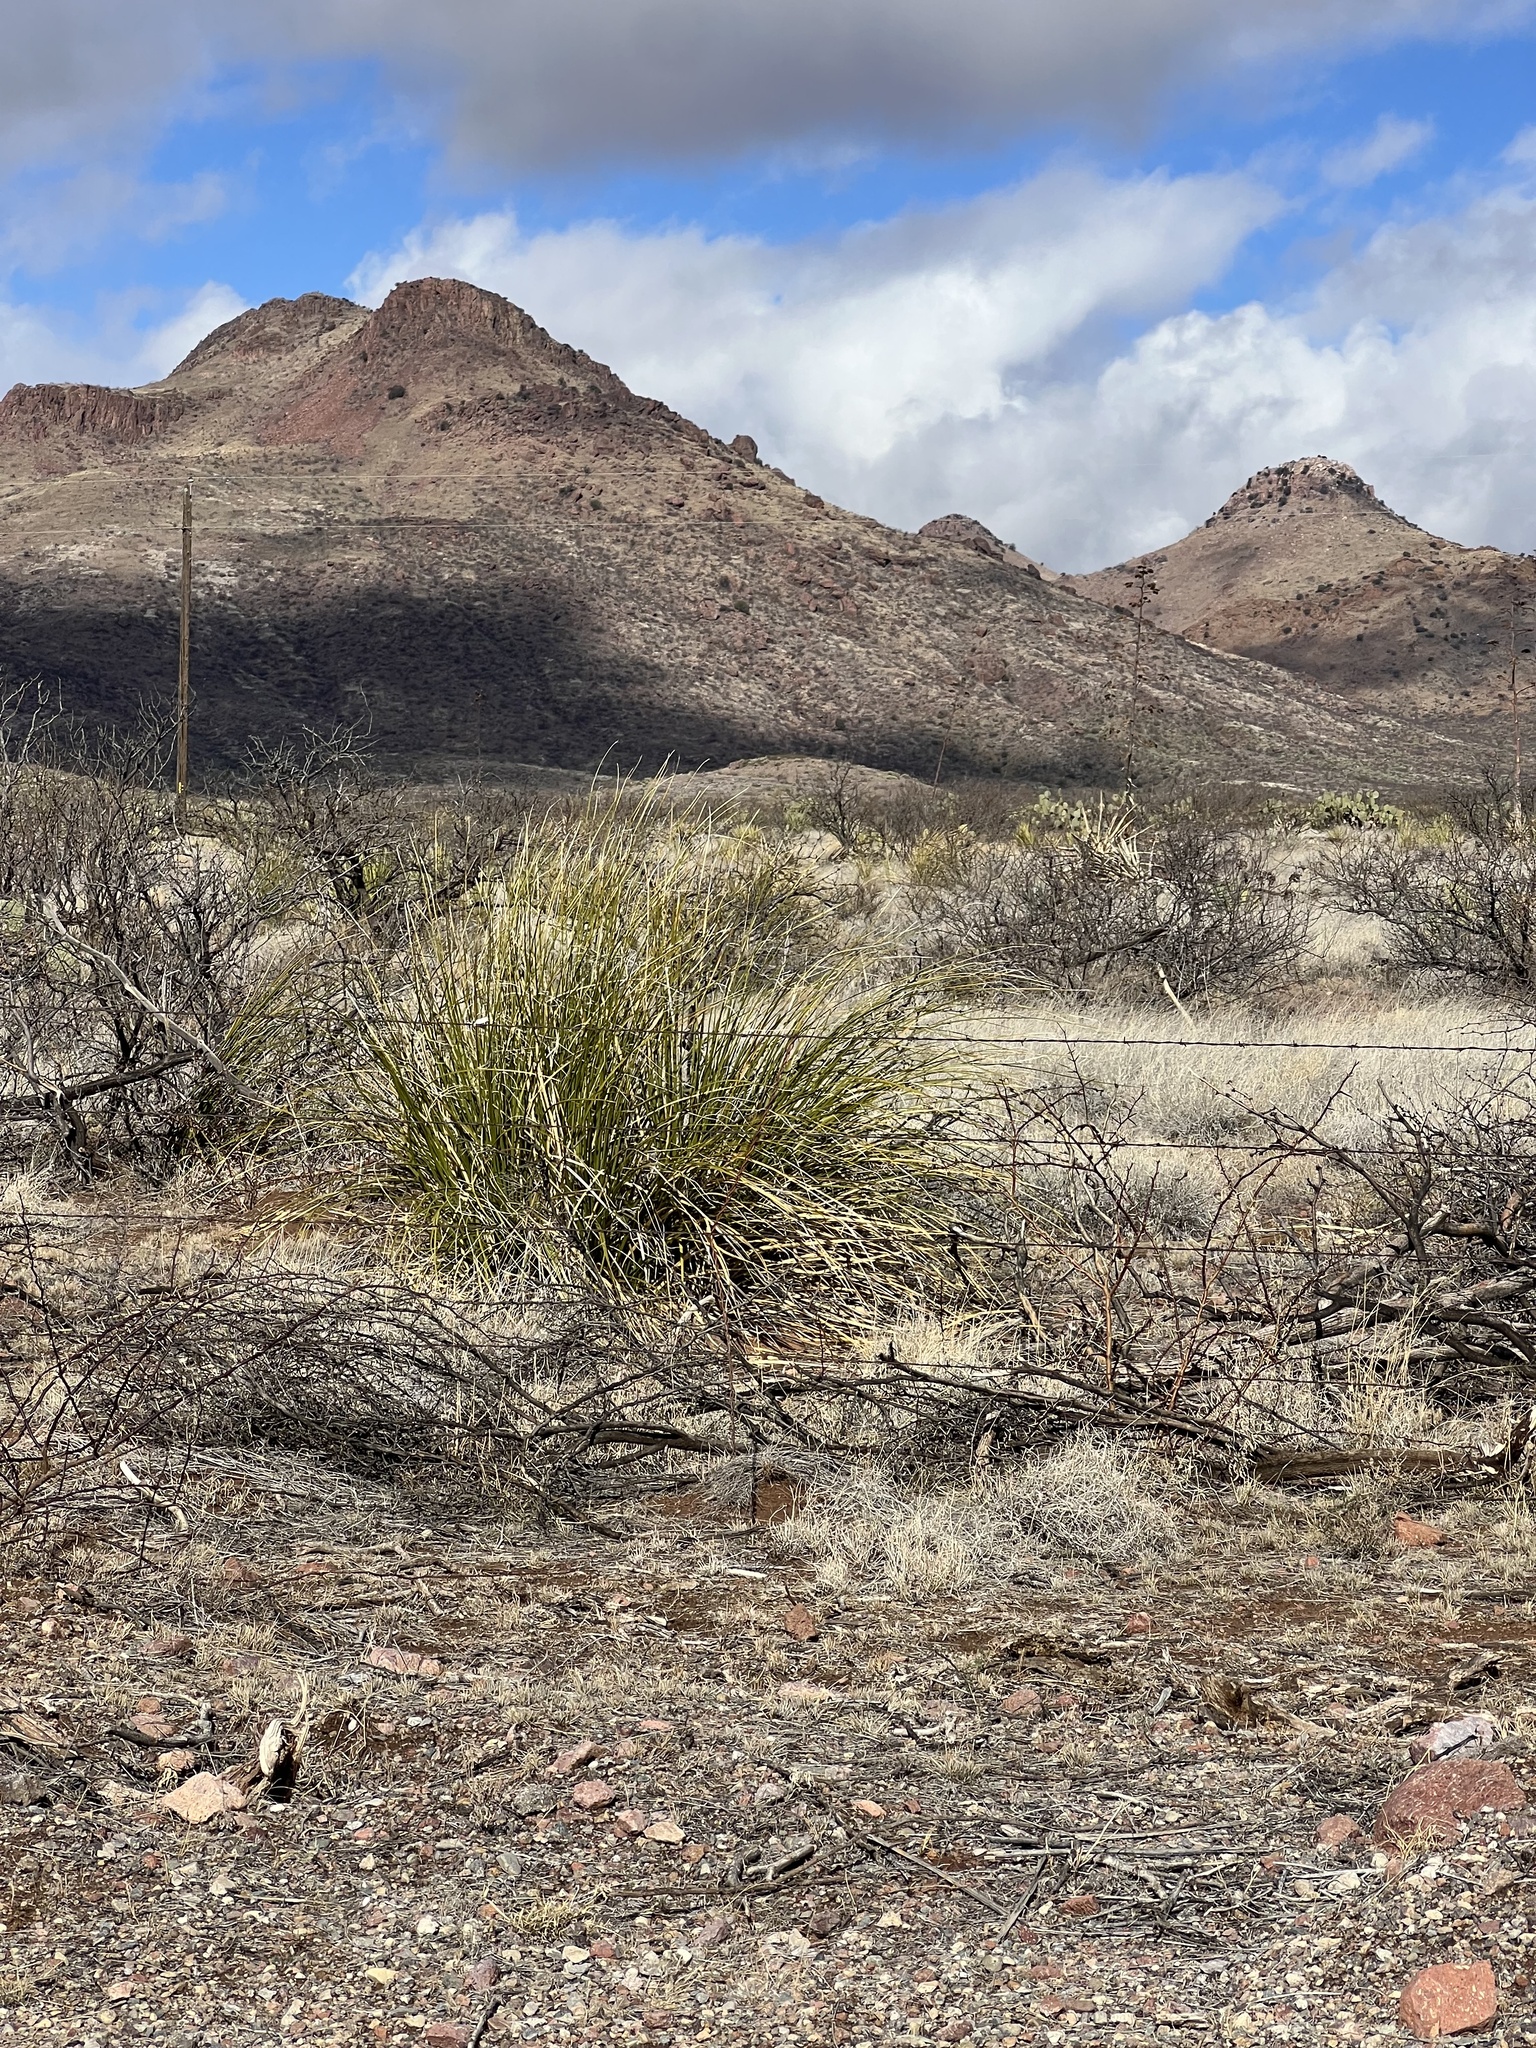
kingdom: Plantae
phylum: Tracheophyta
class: Liliopsida
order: Asparagales
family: Asparagaceae
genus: Nolina
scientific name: Nolina microcarpa
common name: Bear-grass
